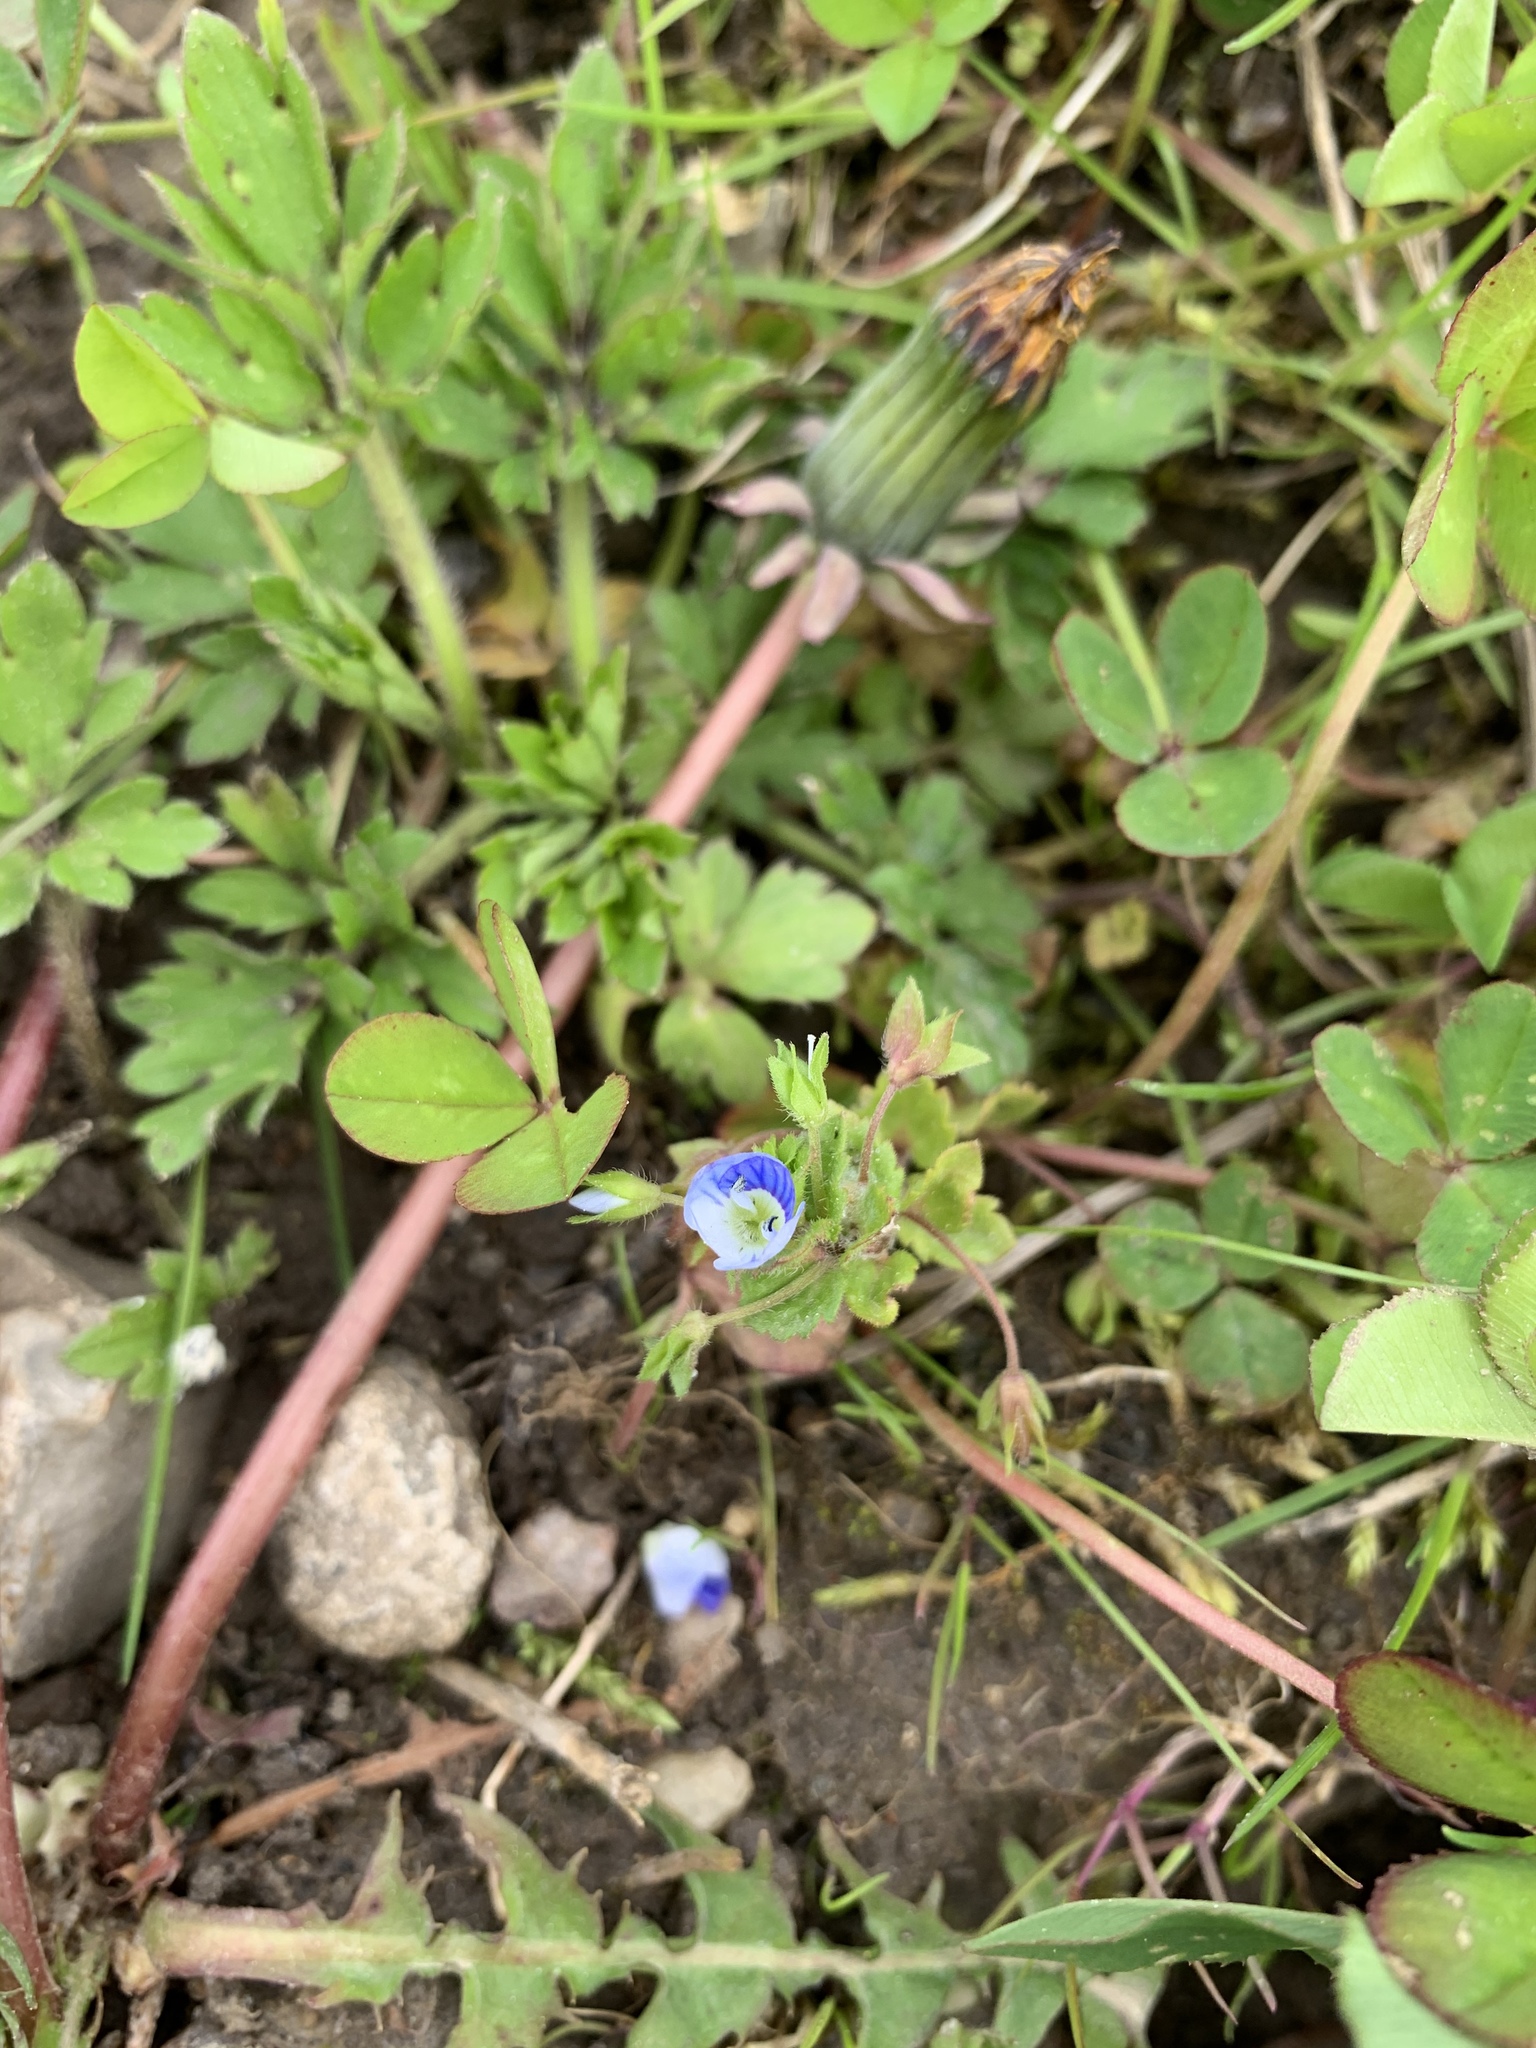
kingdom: Plantae
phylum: Tracheophyta
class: Magnoliopsida
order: Lamiales
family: Plantaginaceae
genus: Veronica
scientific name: Veronica persica
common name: Common field-speedwell
